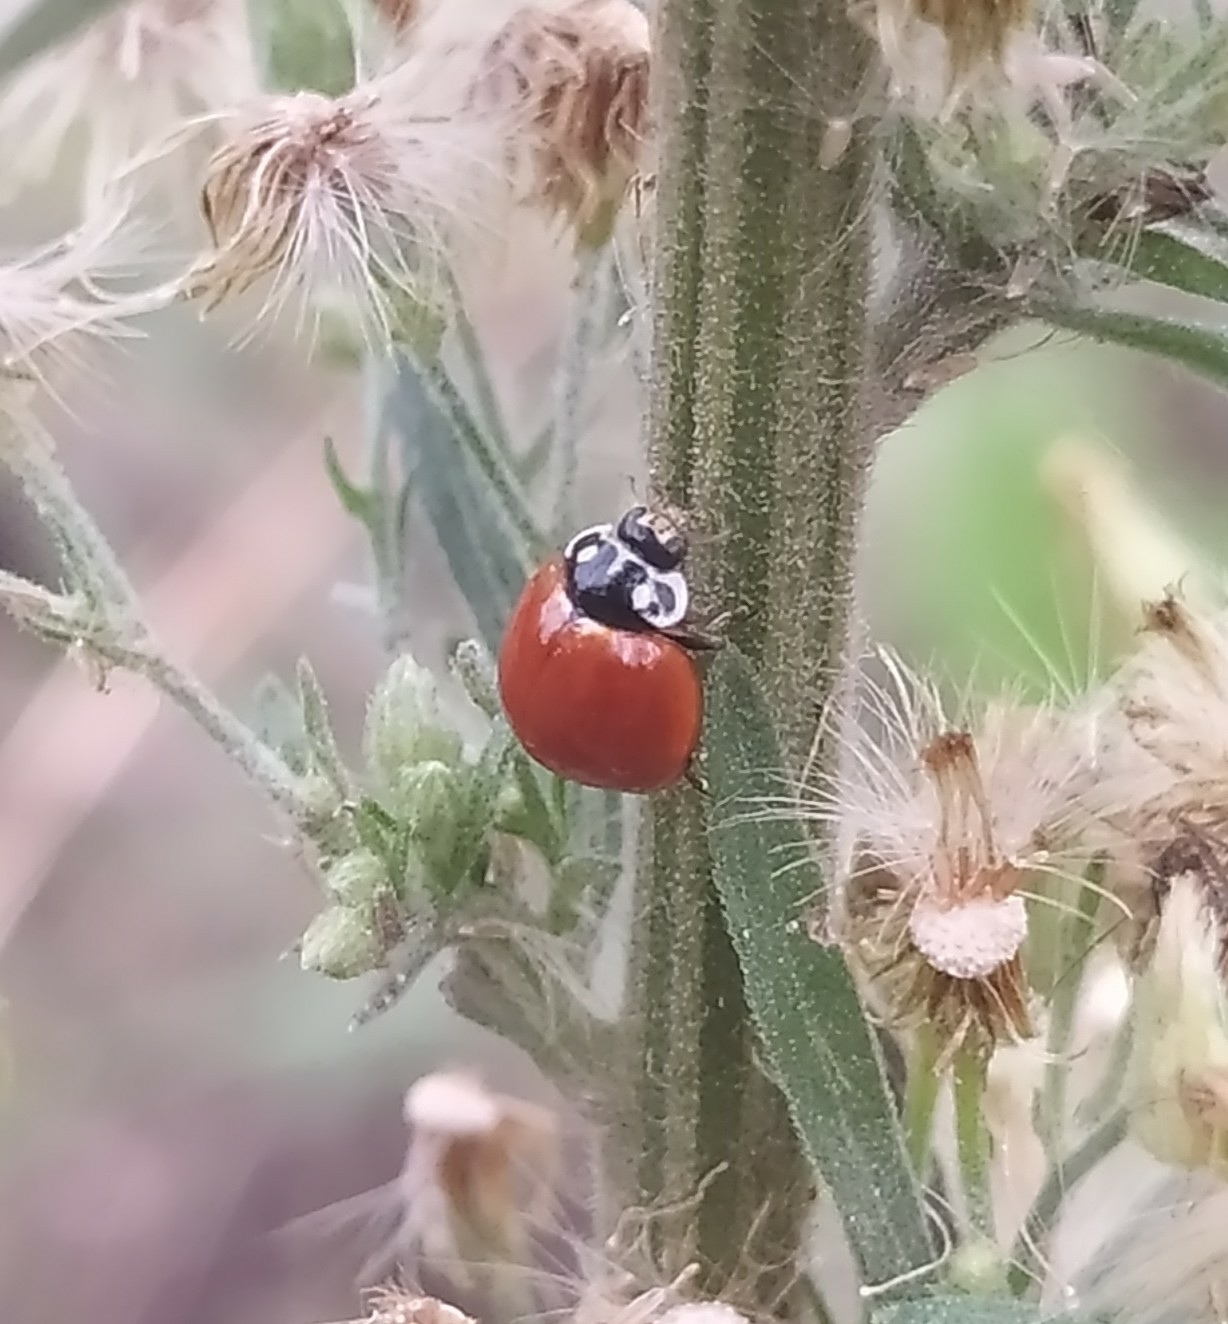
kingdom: Animalia
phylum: Arthropoda
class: Insecta
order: Coleoptera
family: Coccinellidae
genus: Cycloneda
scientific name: Cycloneda sanguinea
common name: Ladybird beetle
